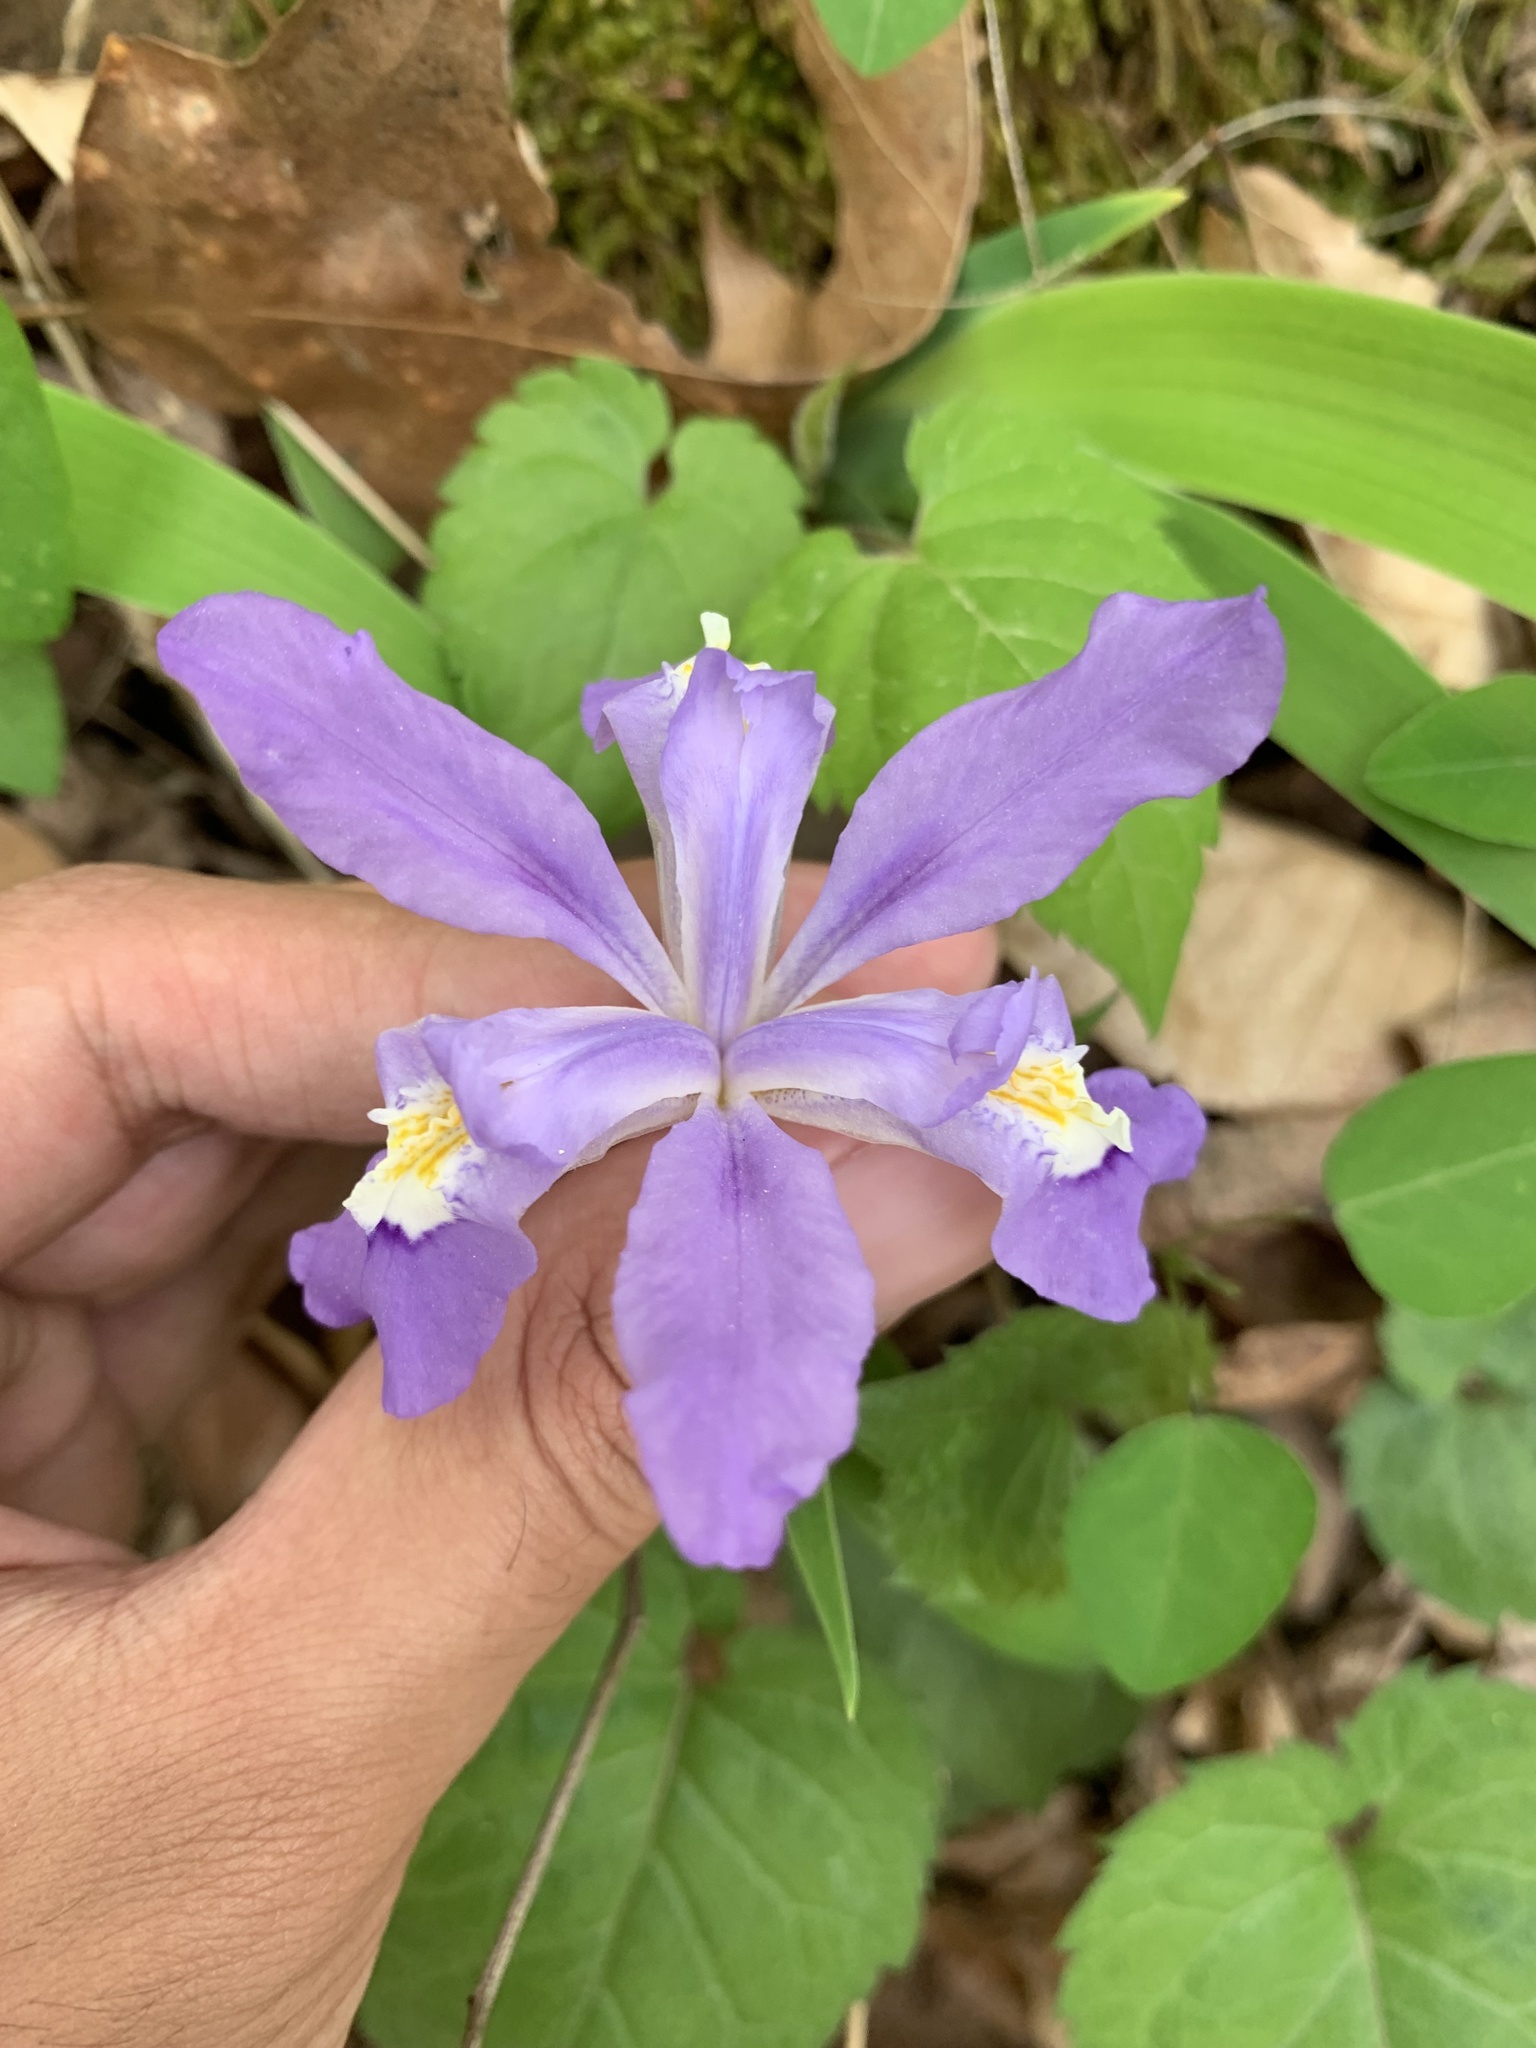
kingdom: Plantae
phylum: Tracheophyta
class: Liliopsida
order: Asparagales
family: Iridaceae
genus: Iris
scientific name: Iris cristata
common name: Crested iris
